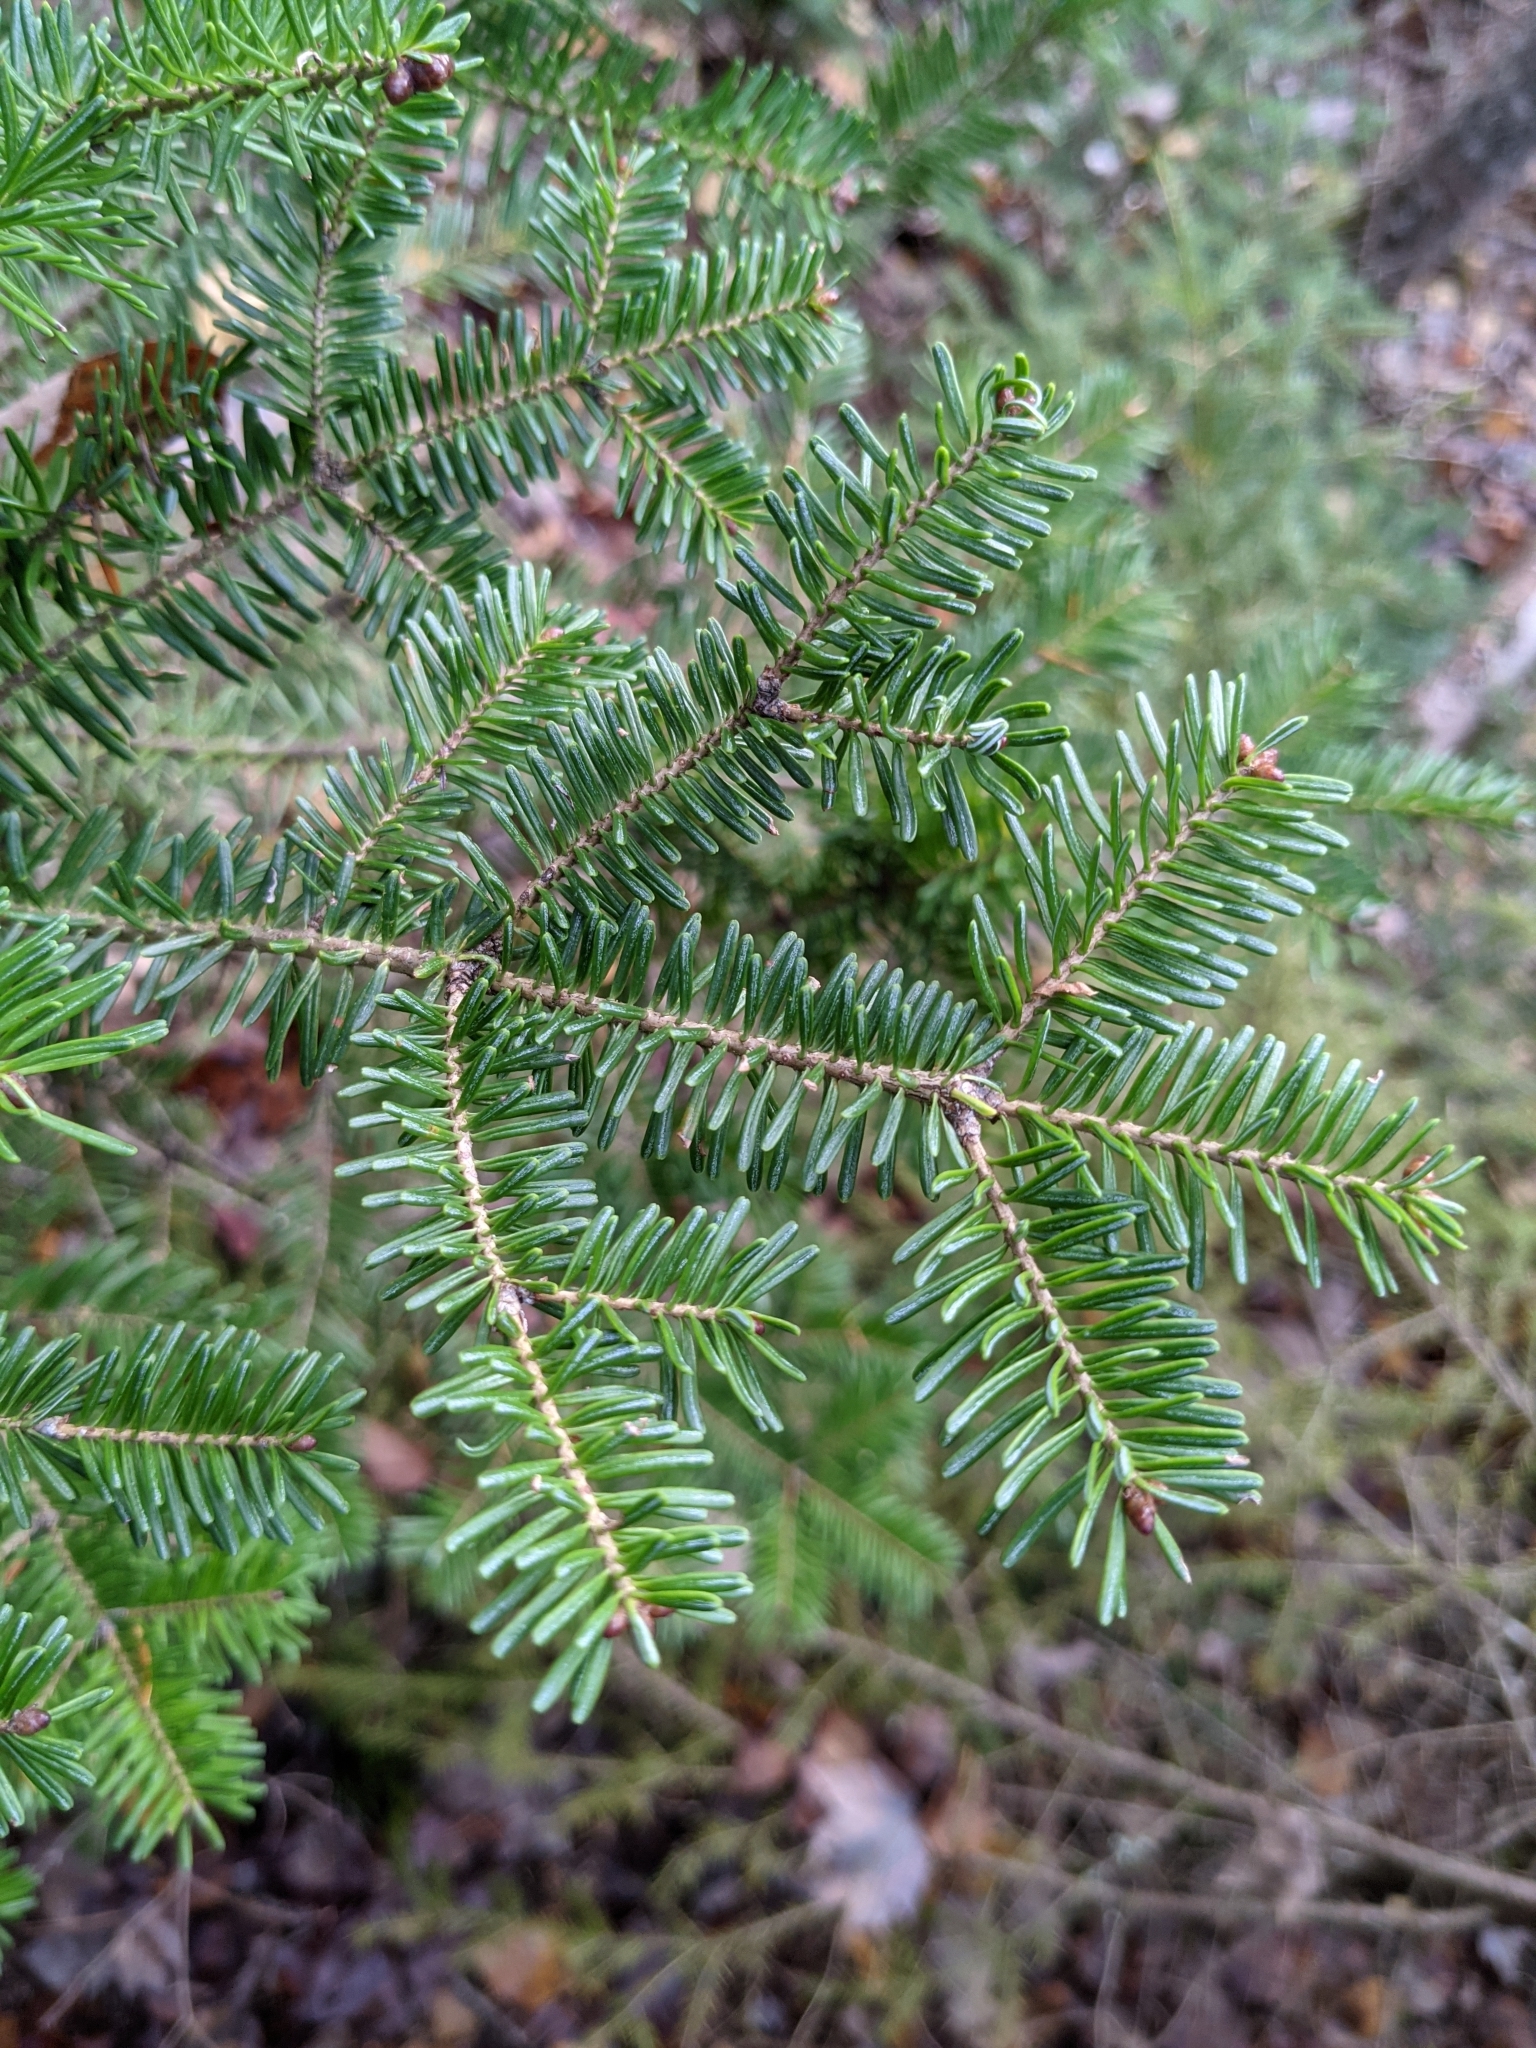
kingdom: Plantae
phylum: Tracheophyta
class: Pinopsida
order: Pinales
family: Pinaceae
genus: Abies
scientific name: Abies balsamea
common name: Balsam fir
